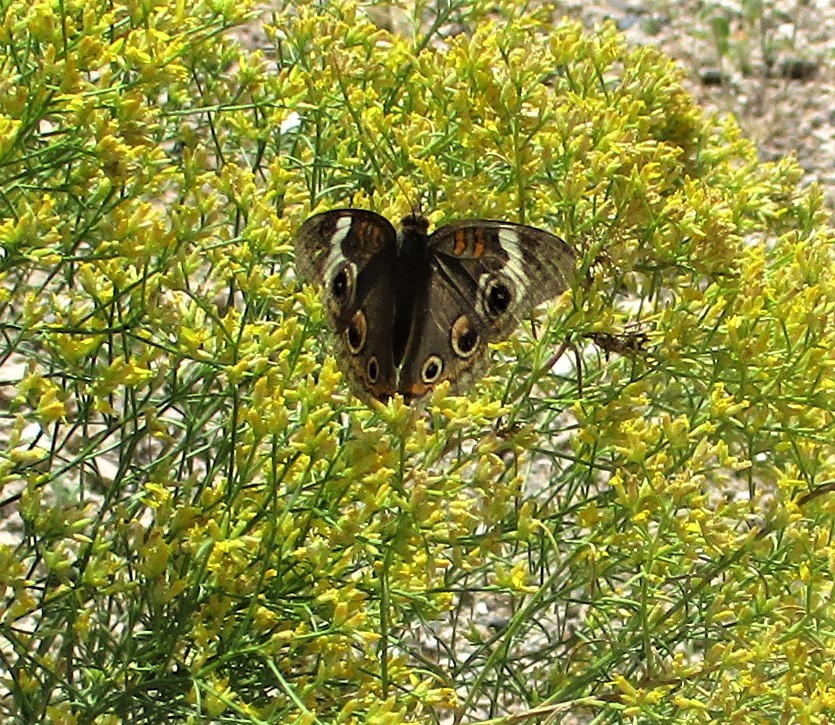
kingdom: Animalia
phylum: Arthropoda
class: Insecta
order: Lepidoptera
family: Nymphalidae
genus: Junonia
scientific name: Junonia grisea
